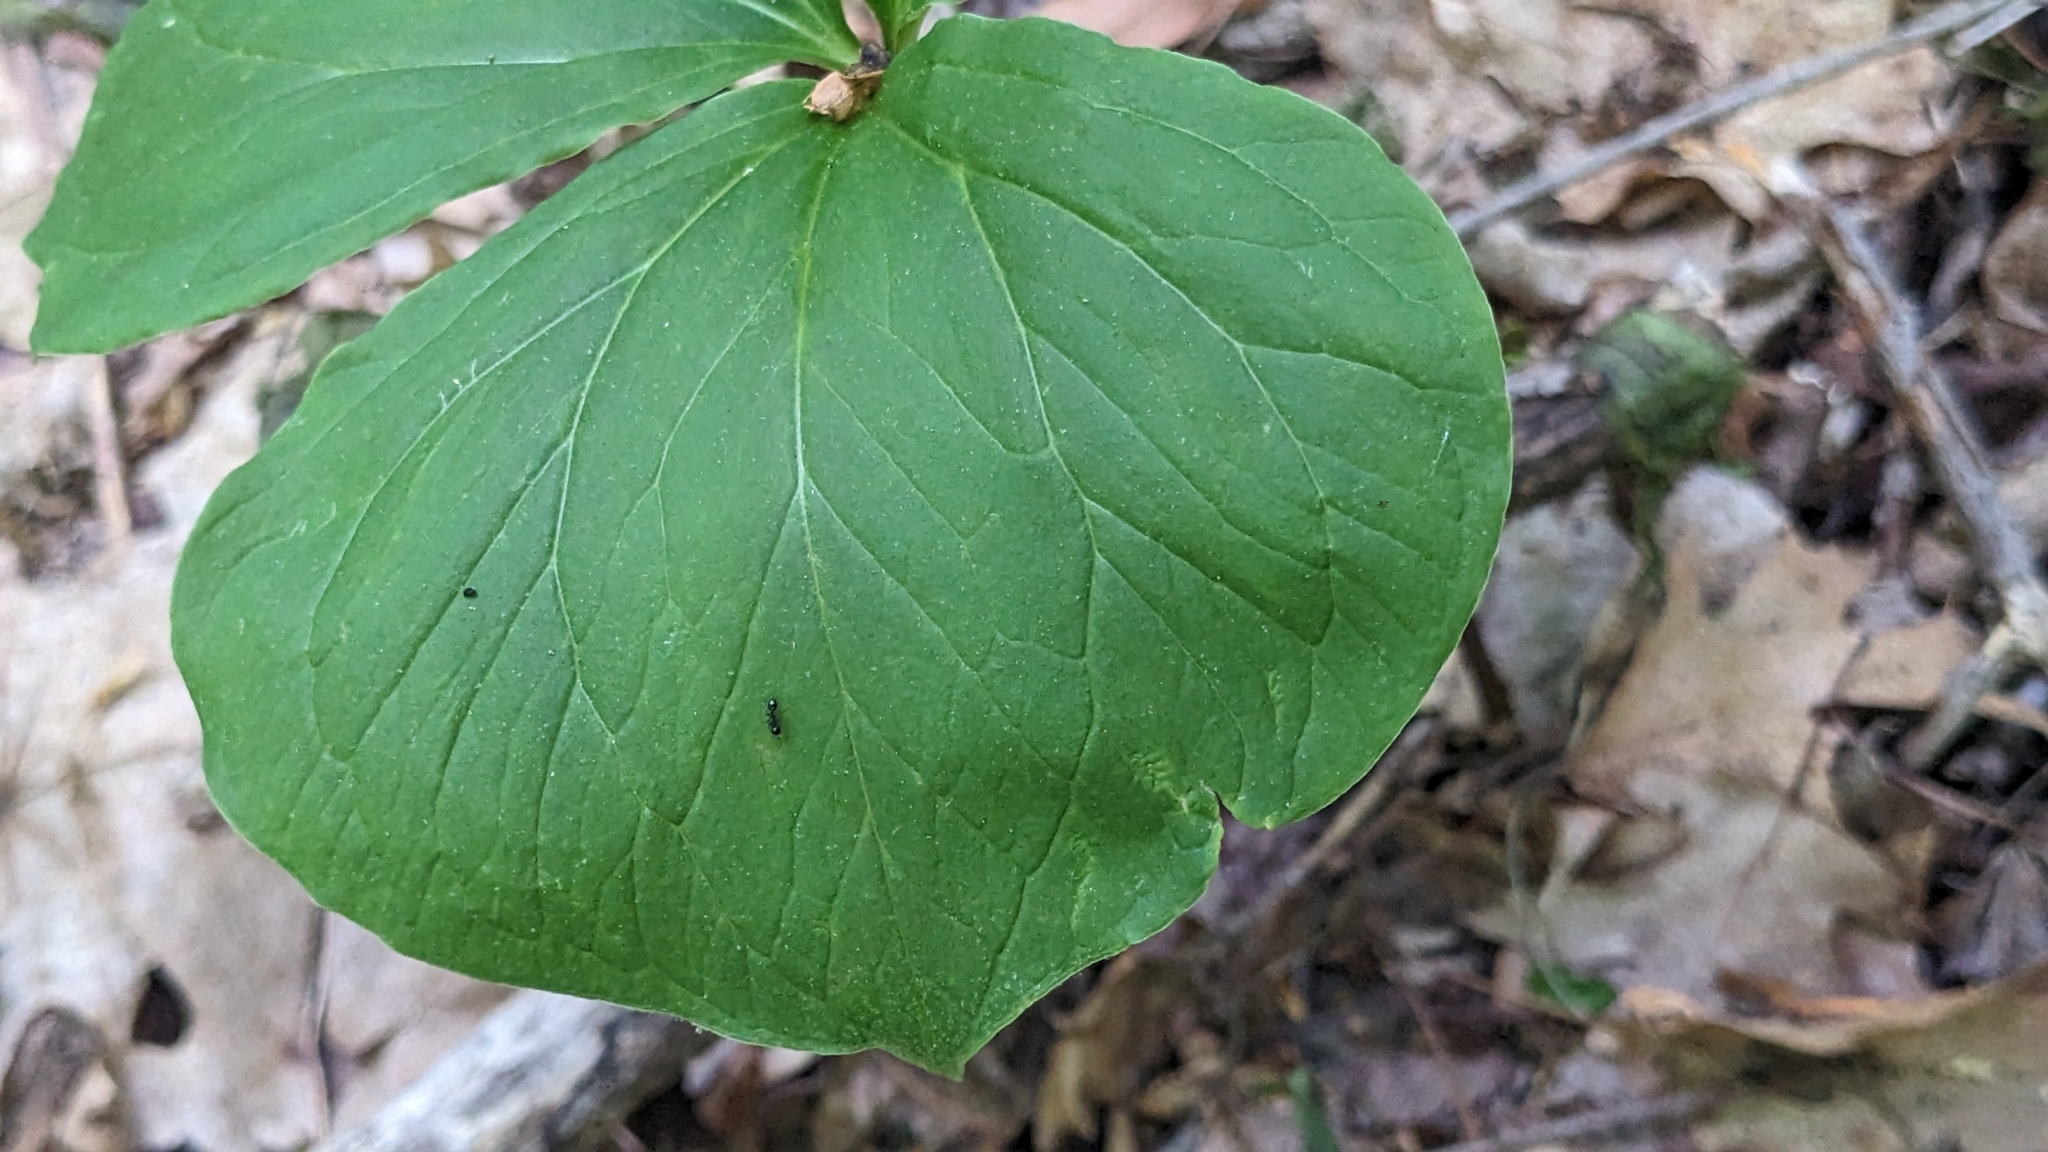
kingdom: Plantae
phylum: Tracheophyta
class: Liliopsida
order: Liliales
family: Melanthiaceae
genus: Trillium
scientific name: Trillium cernuum
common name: Nodding trillium
